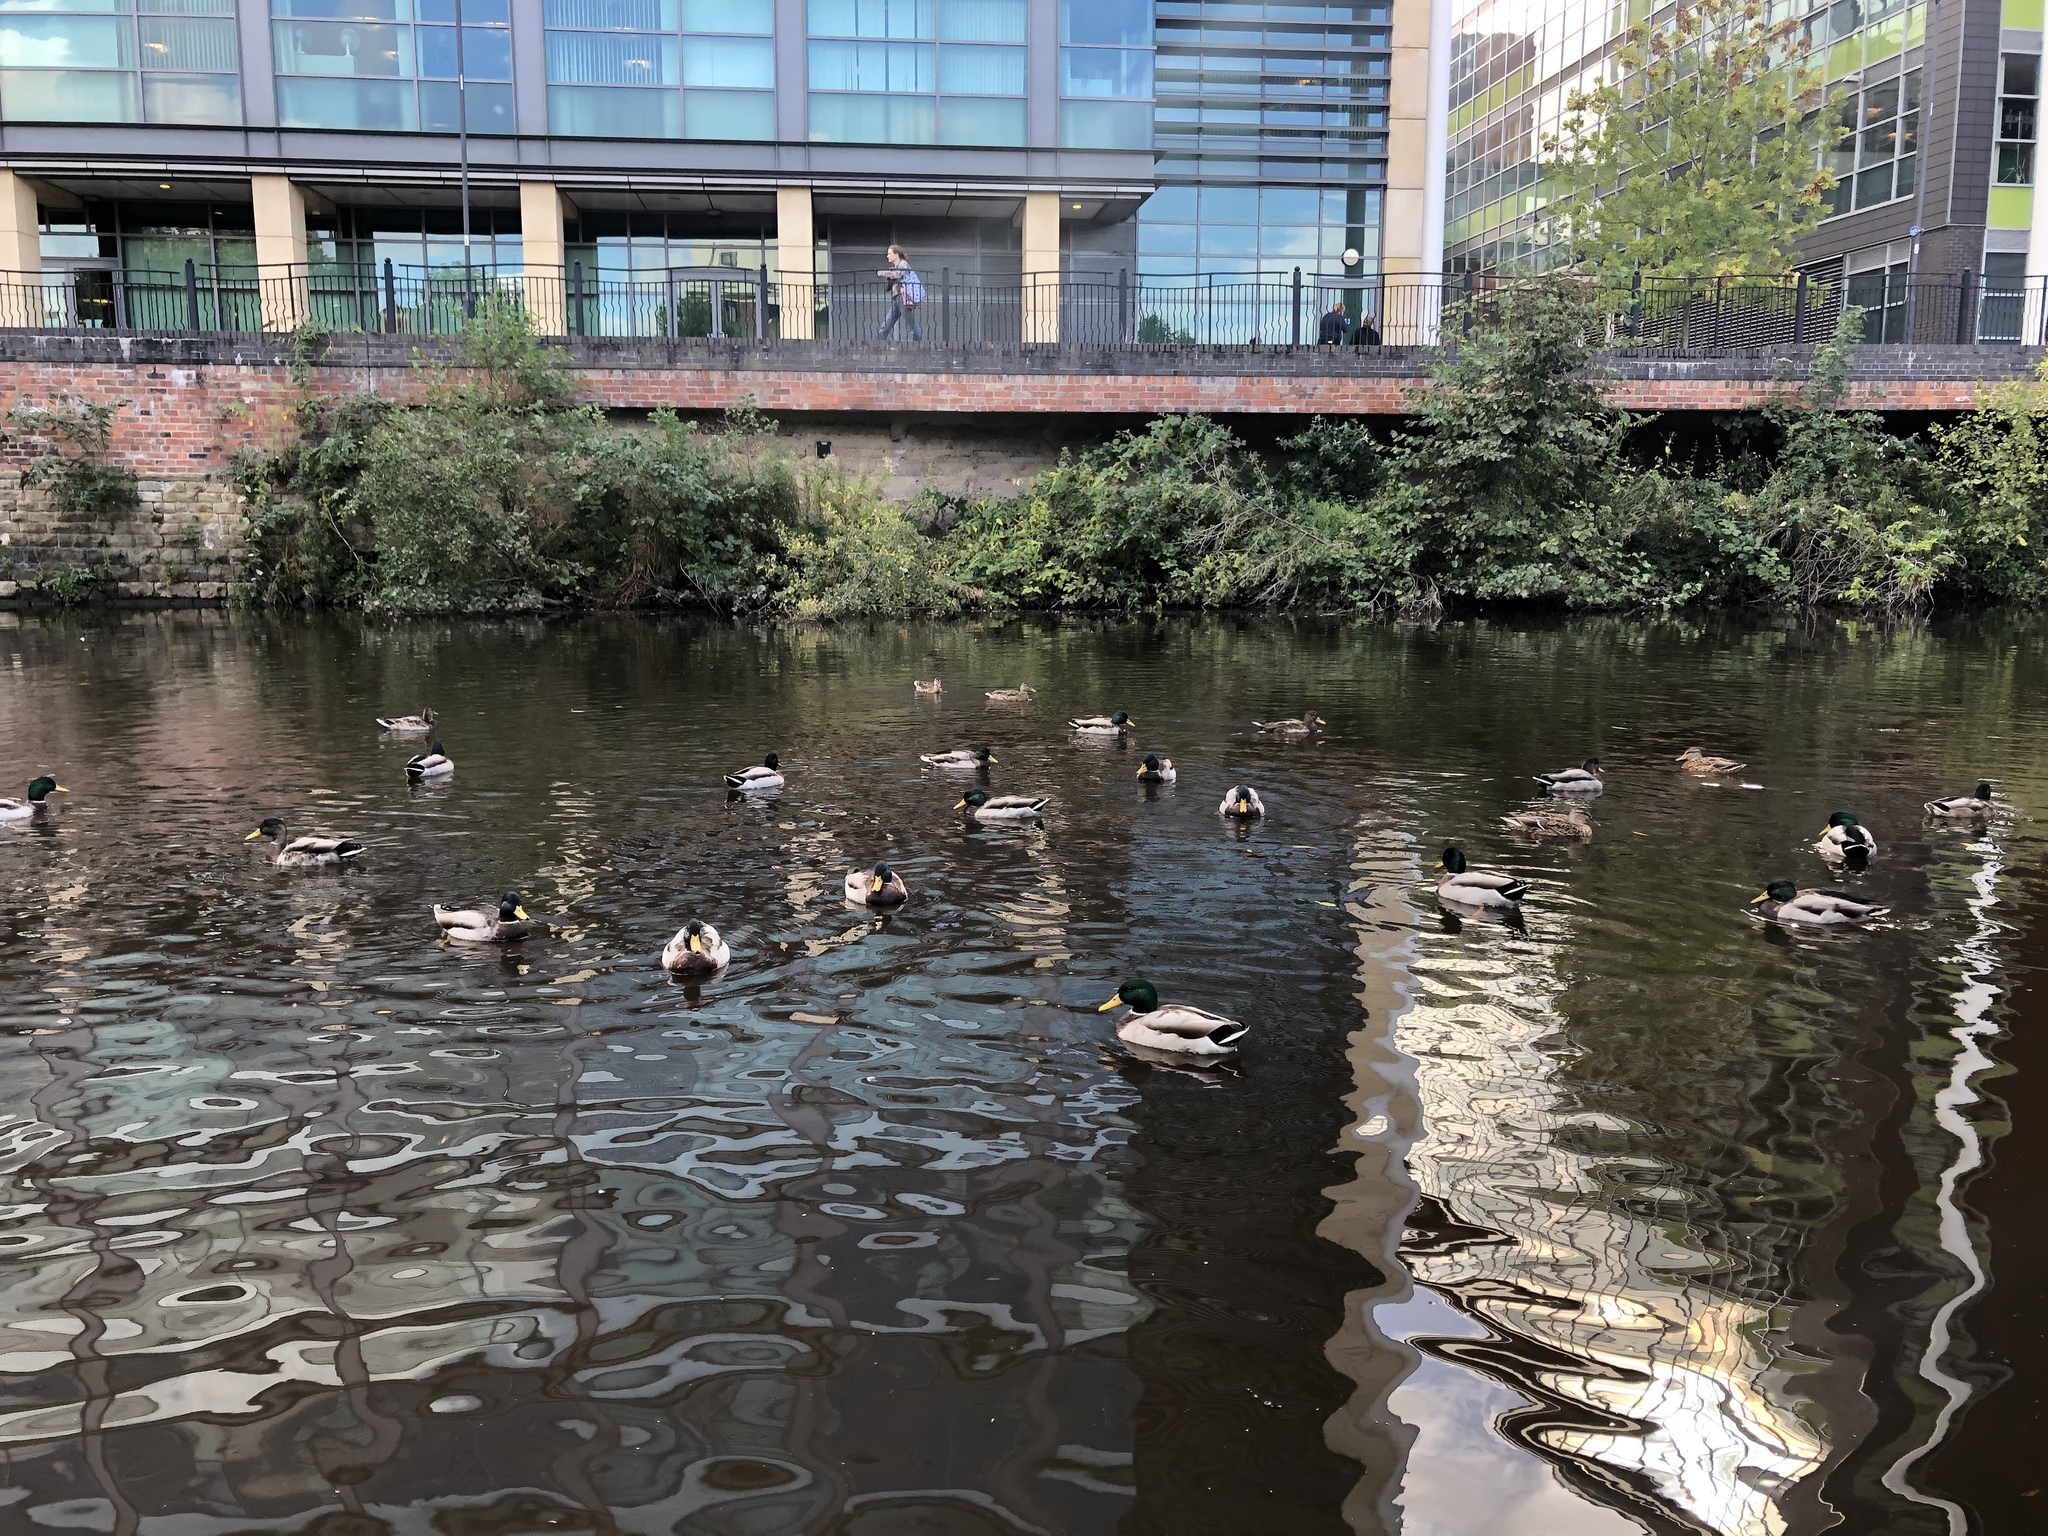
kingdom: Animalia
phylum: Chordata
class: Aves
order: Anseriformes
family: Anatidae
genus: Anas
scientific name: Anas platyrhynchos
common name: Mallard
